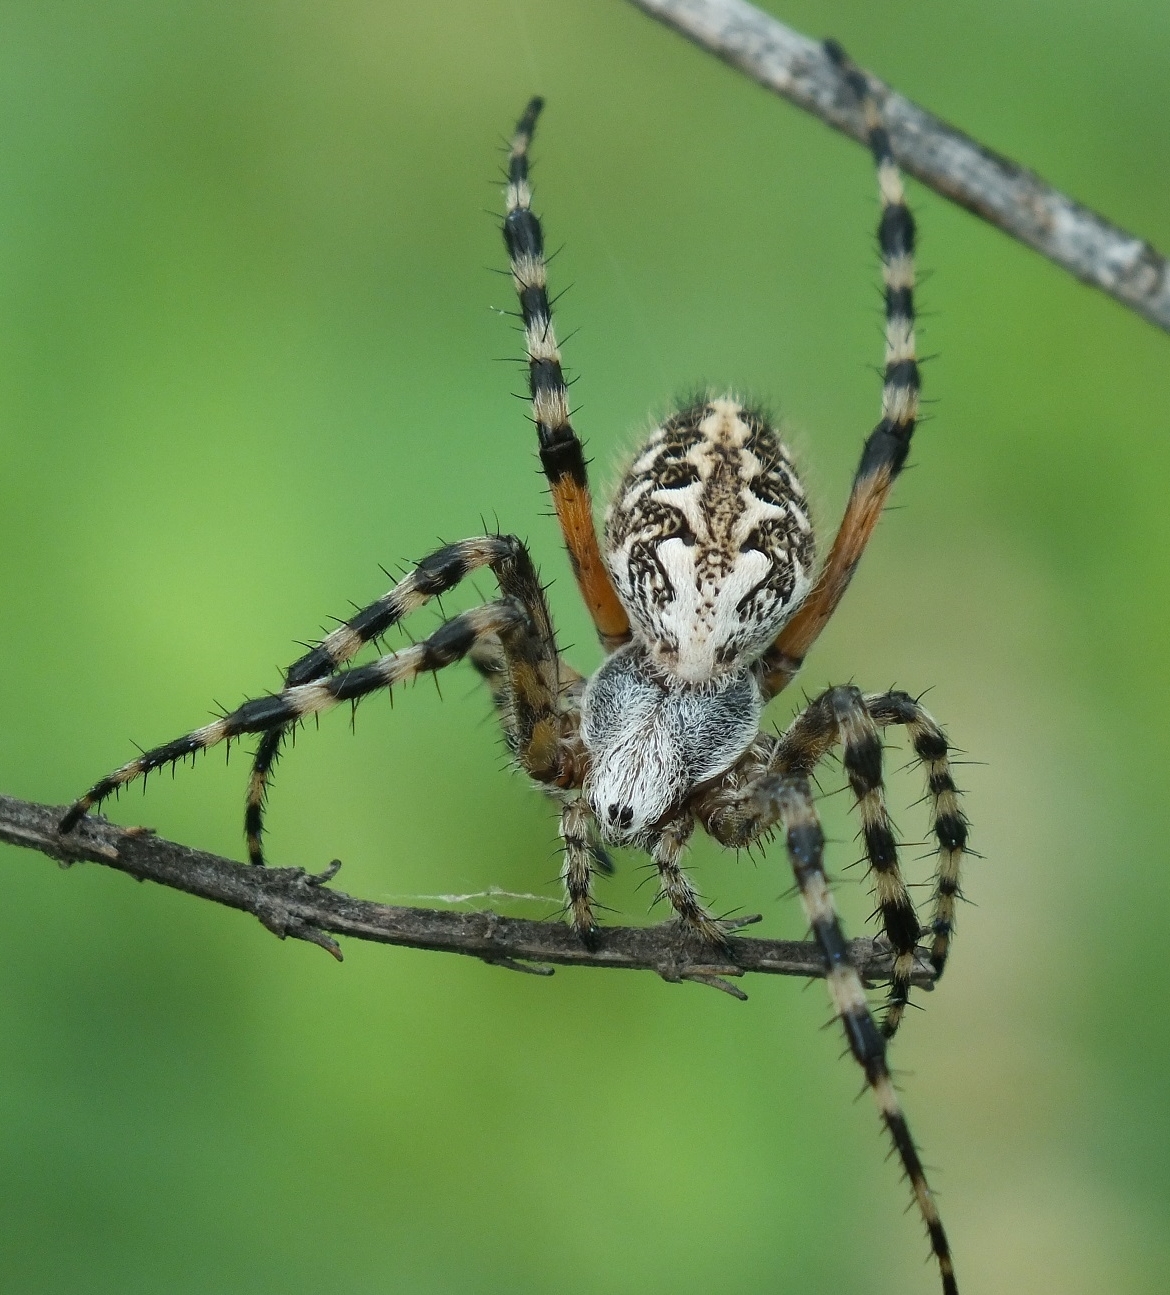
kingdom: Animalia
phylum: Arthropoda
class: Arachnida
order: Araneae
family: Araneidae
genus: Aculepeira
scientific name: Aculepeira armida
